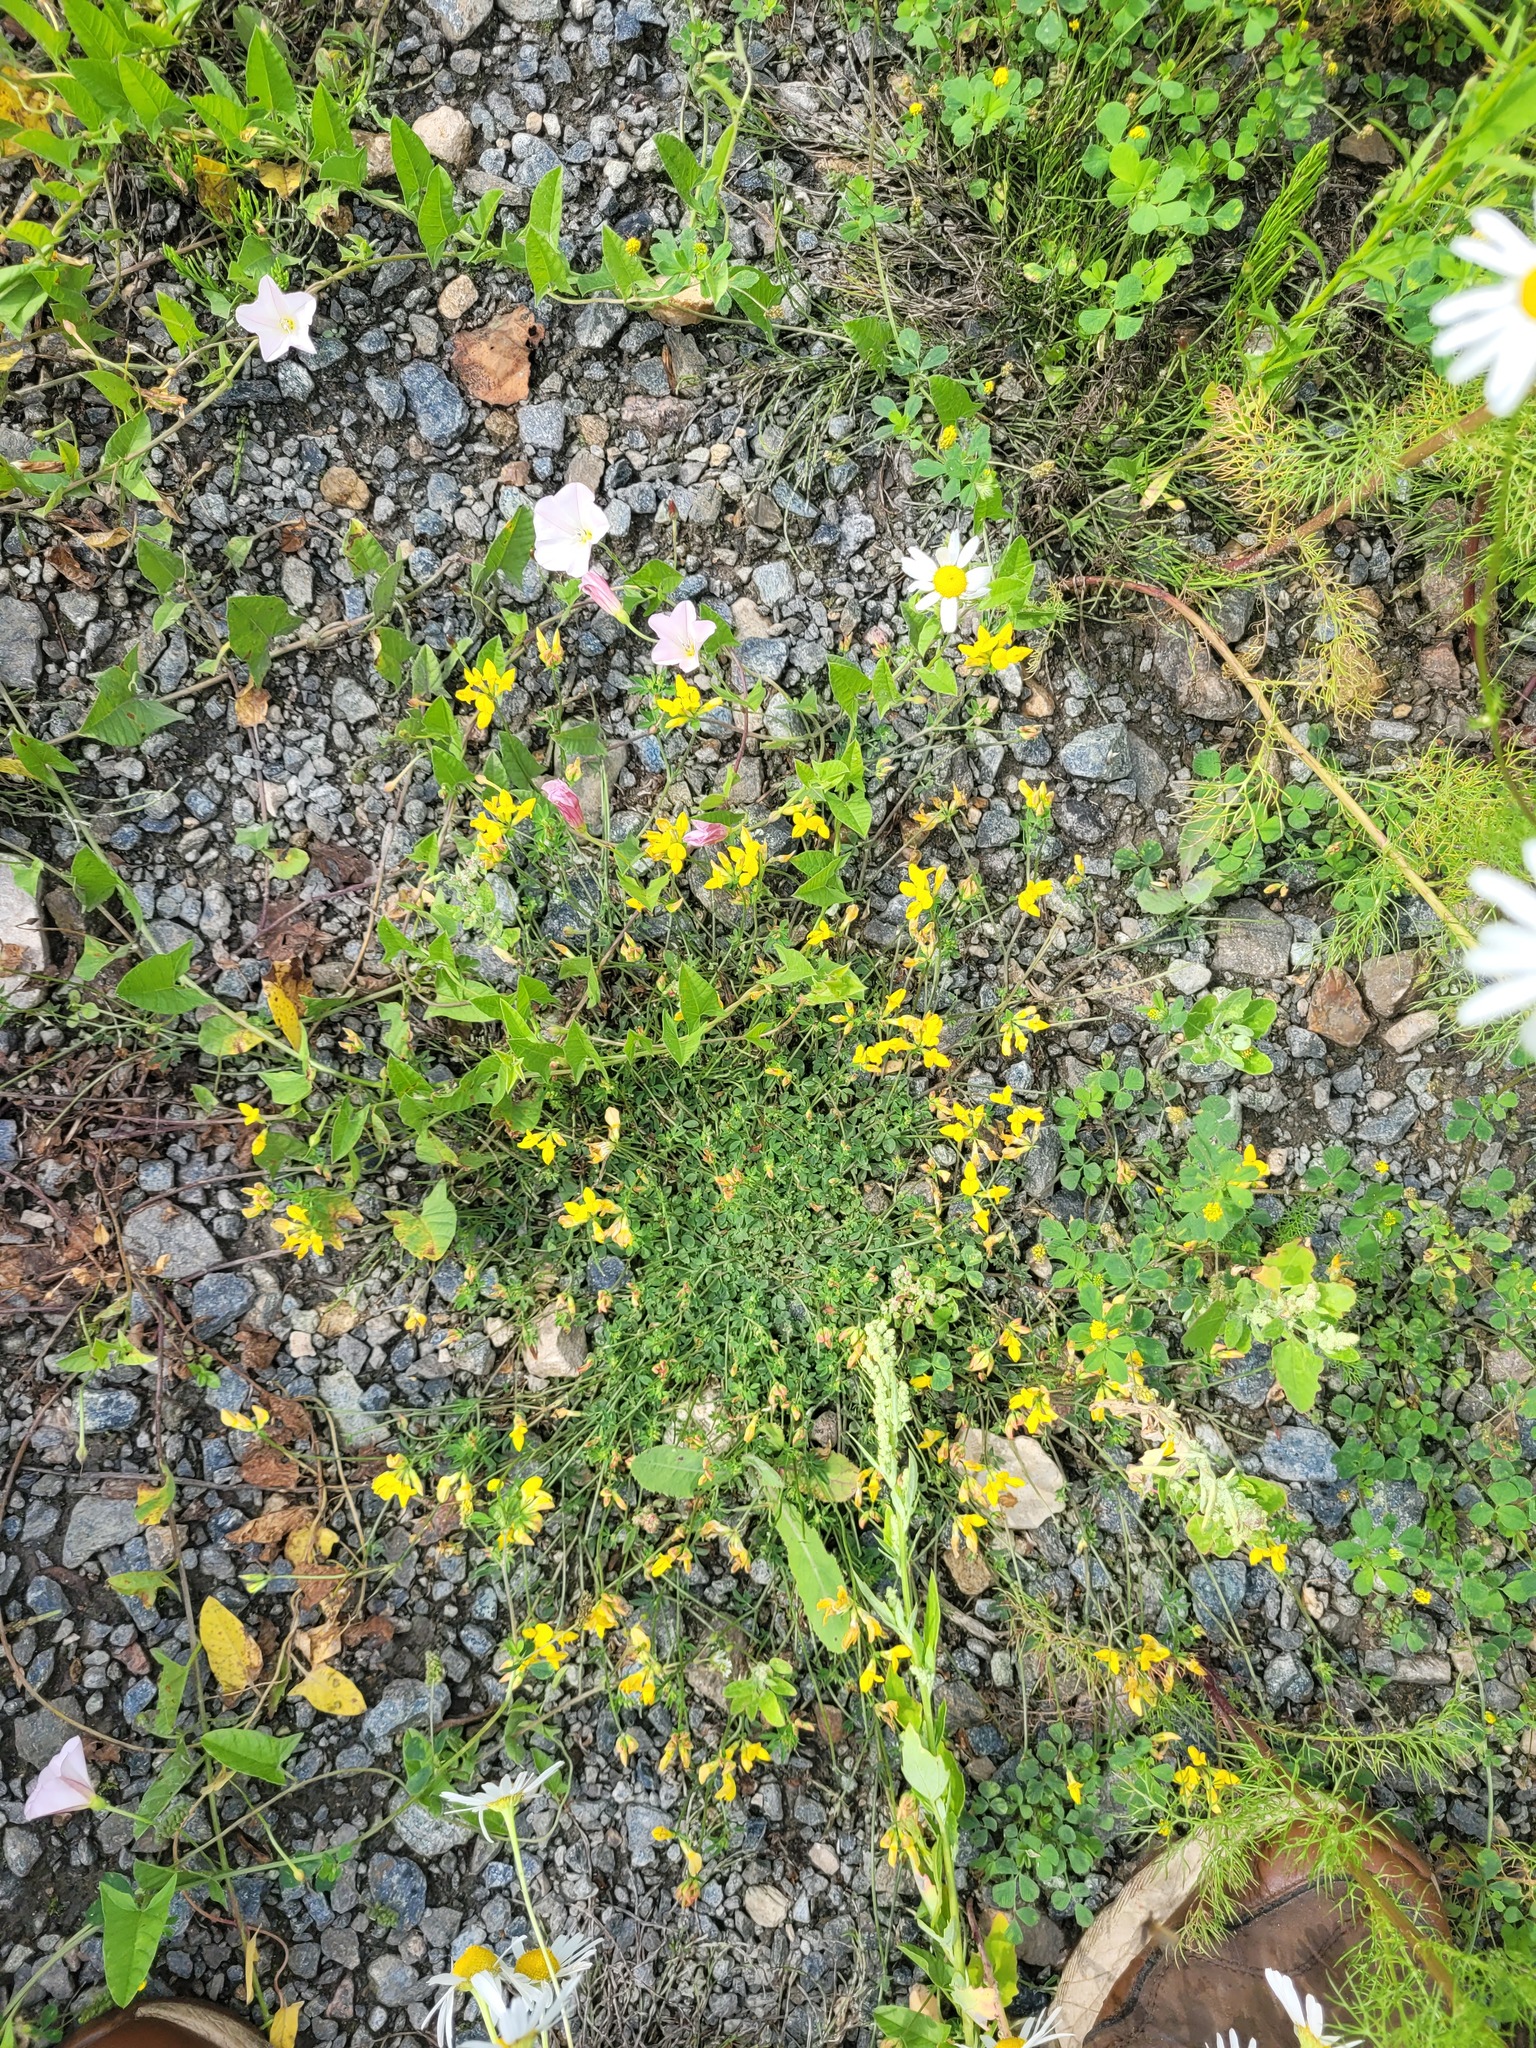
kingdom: Plantae
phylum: Tracheophyta
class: Magnoliopsida
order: Fabales
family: Fabaceae
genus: Lotus
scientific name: Lotus corniculatus
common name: Common bird's-foot-trefoil
